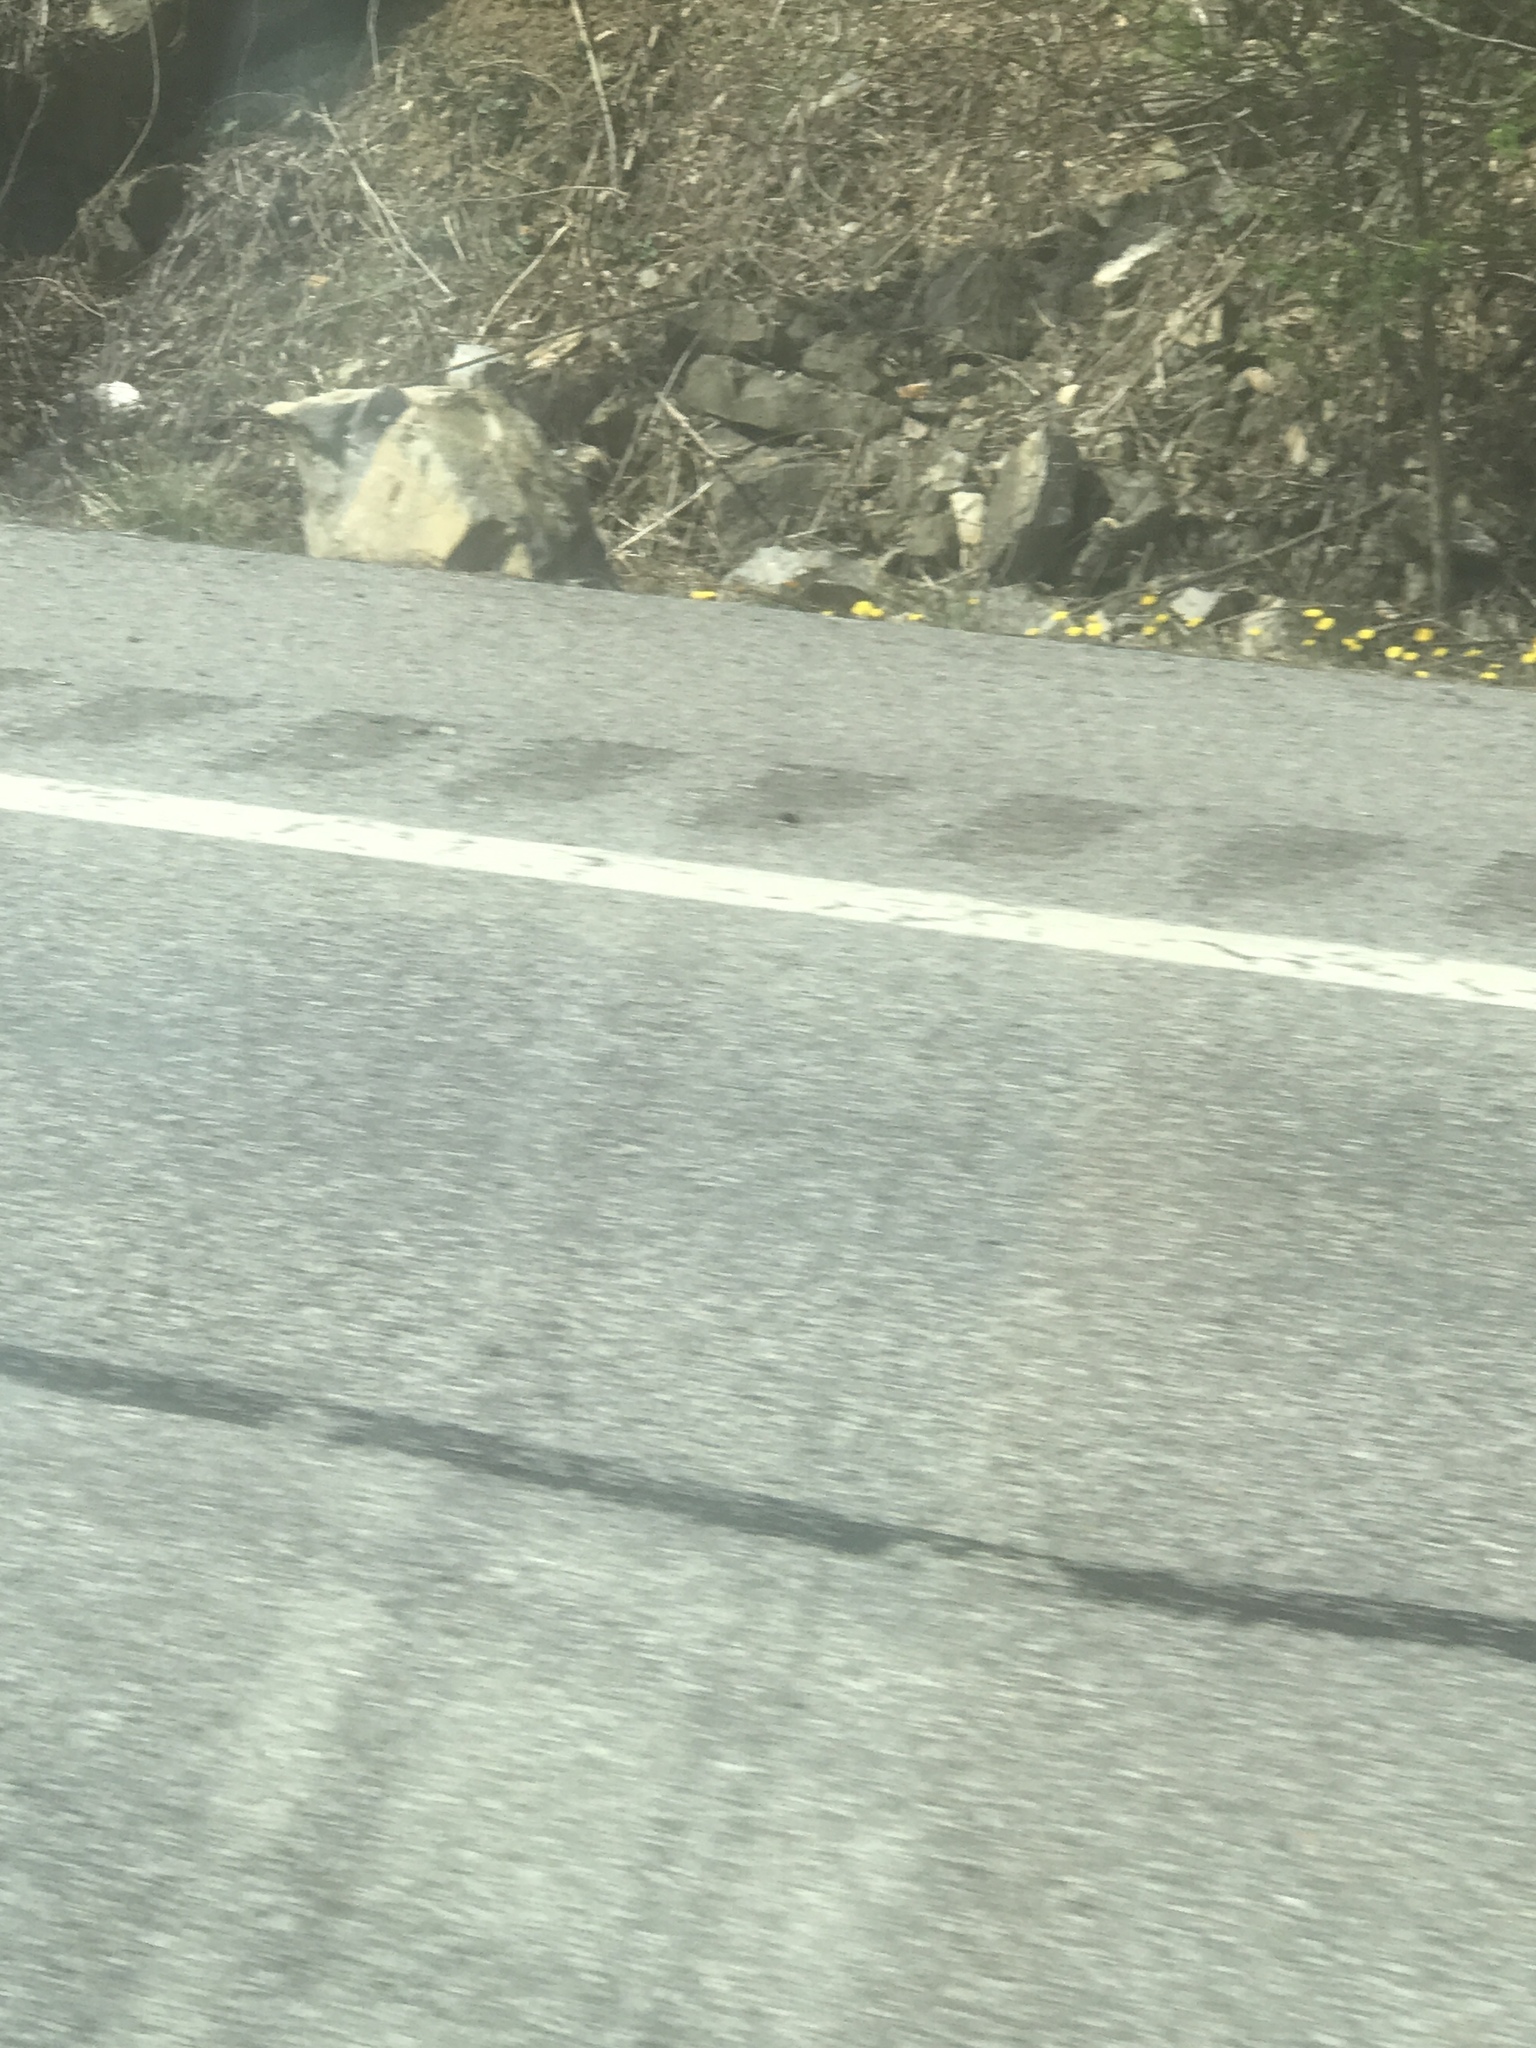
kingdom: Plantae
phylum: Tracheophyta
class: Magnoliopsida
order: Asterales
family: Asteraceae
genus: Tussilago
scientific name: Tussilago farfara
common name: Coltsfoot
